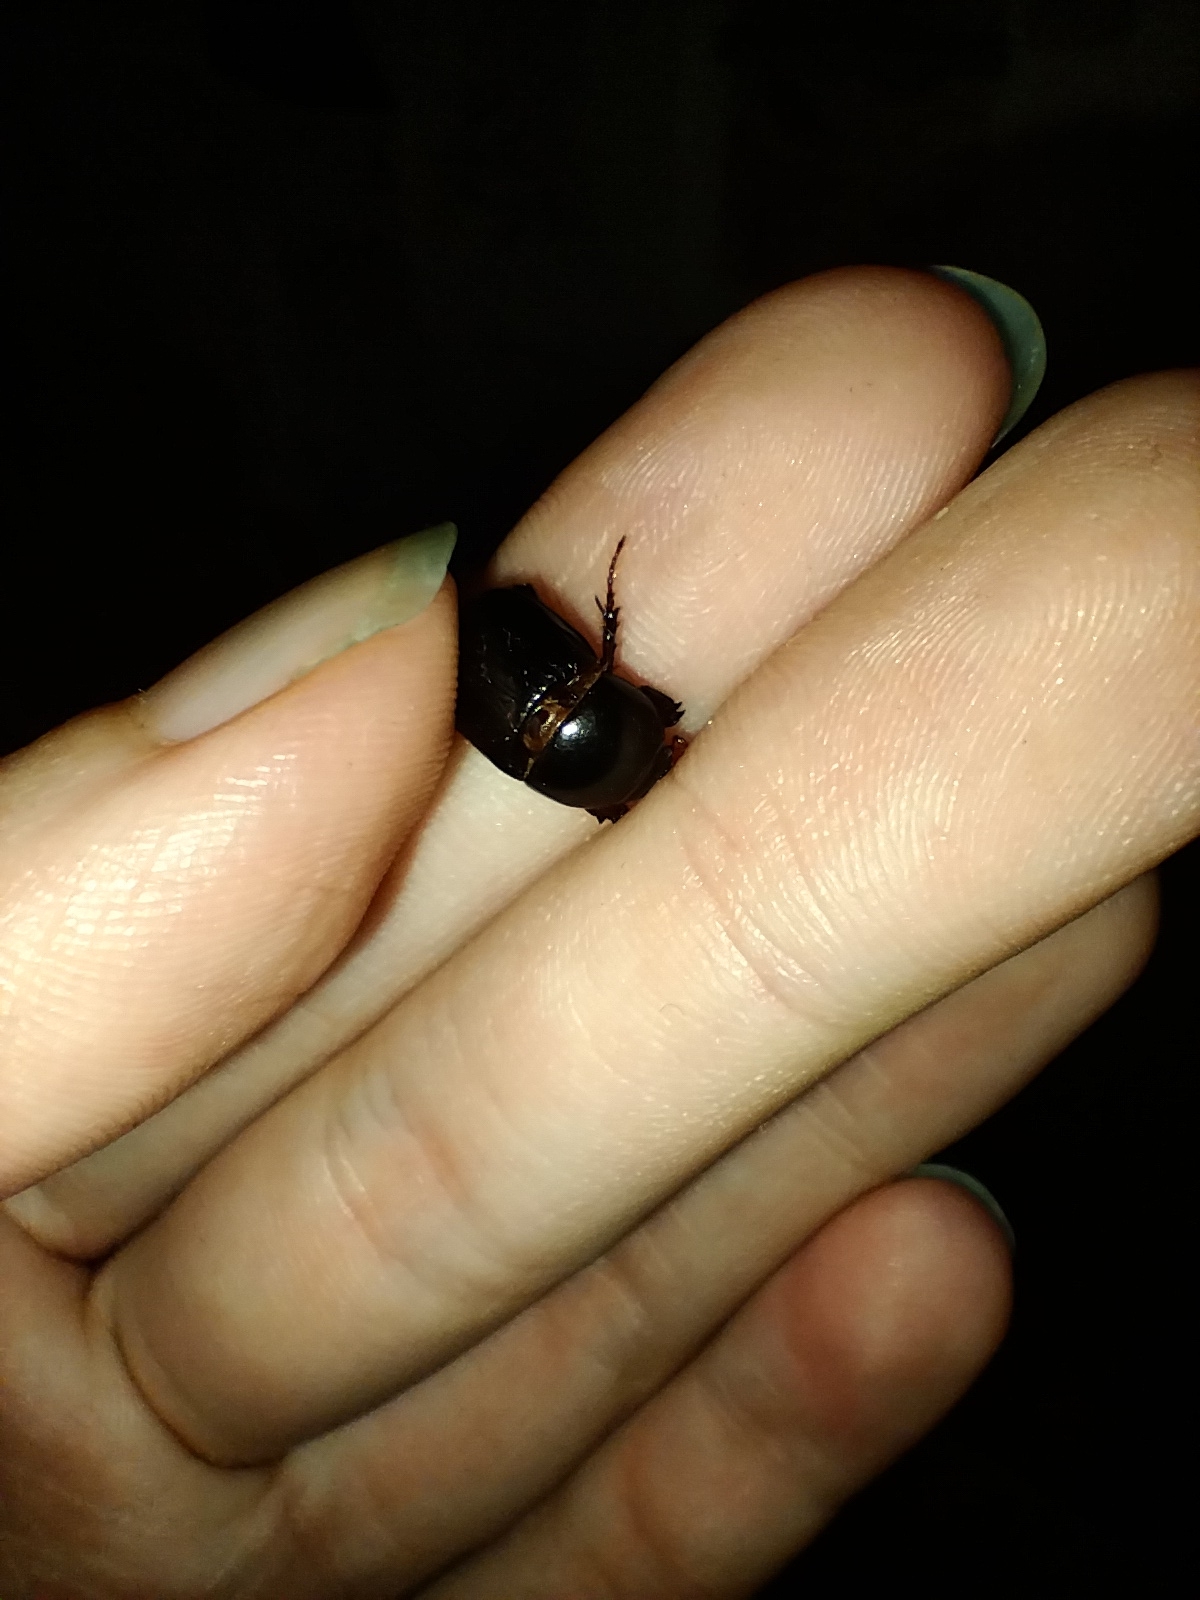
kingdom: Animalia
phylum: Arthropoda
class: Insecta
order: Coleoptera
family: Scarabaeidae
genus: Heteronychus
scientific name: Heteronychus arator
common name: African black beetle
